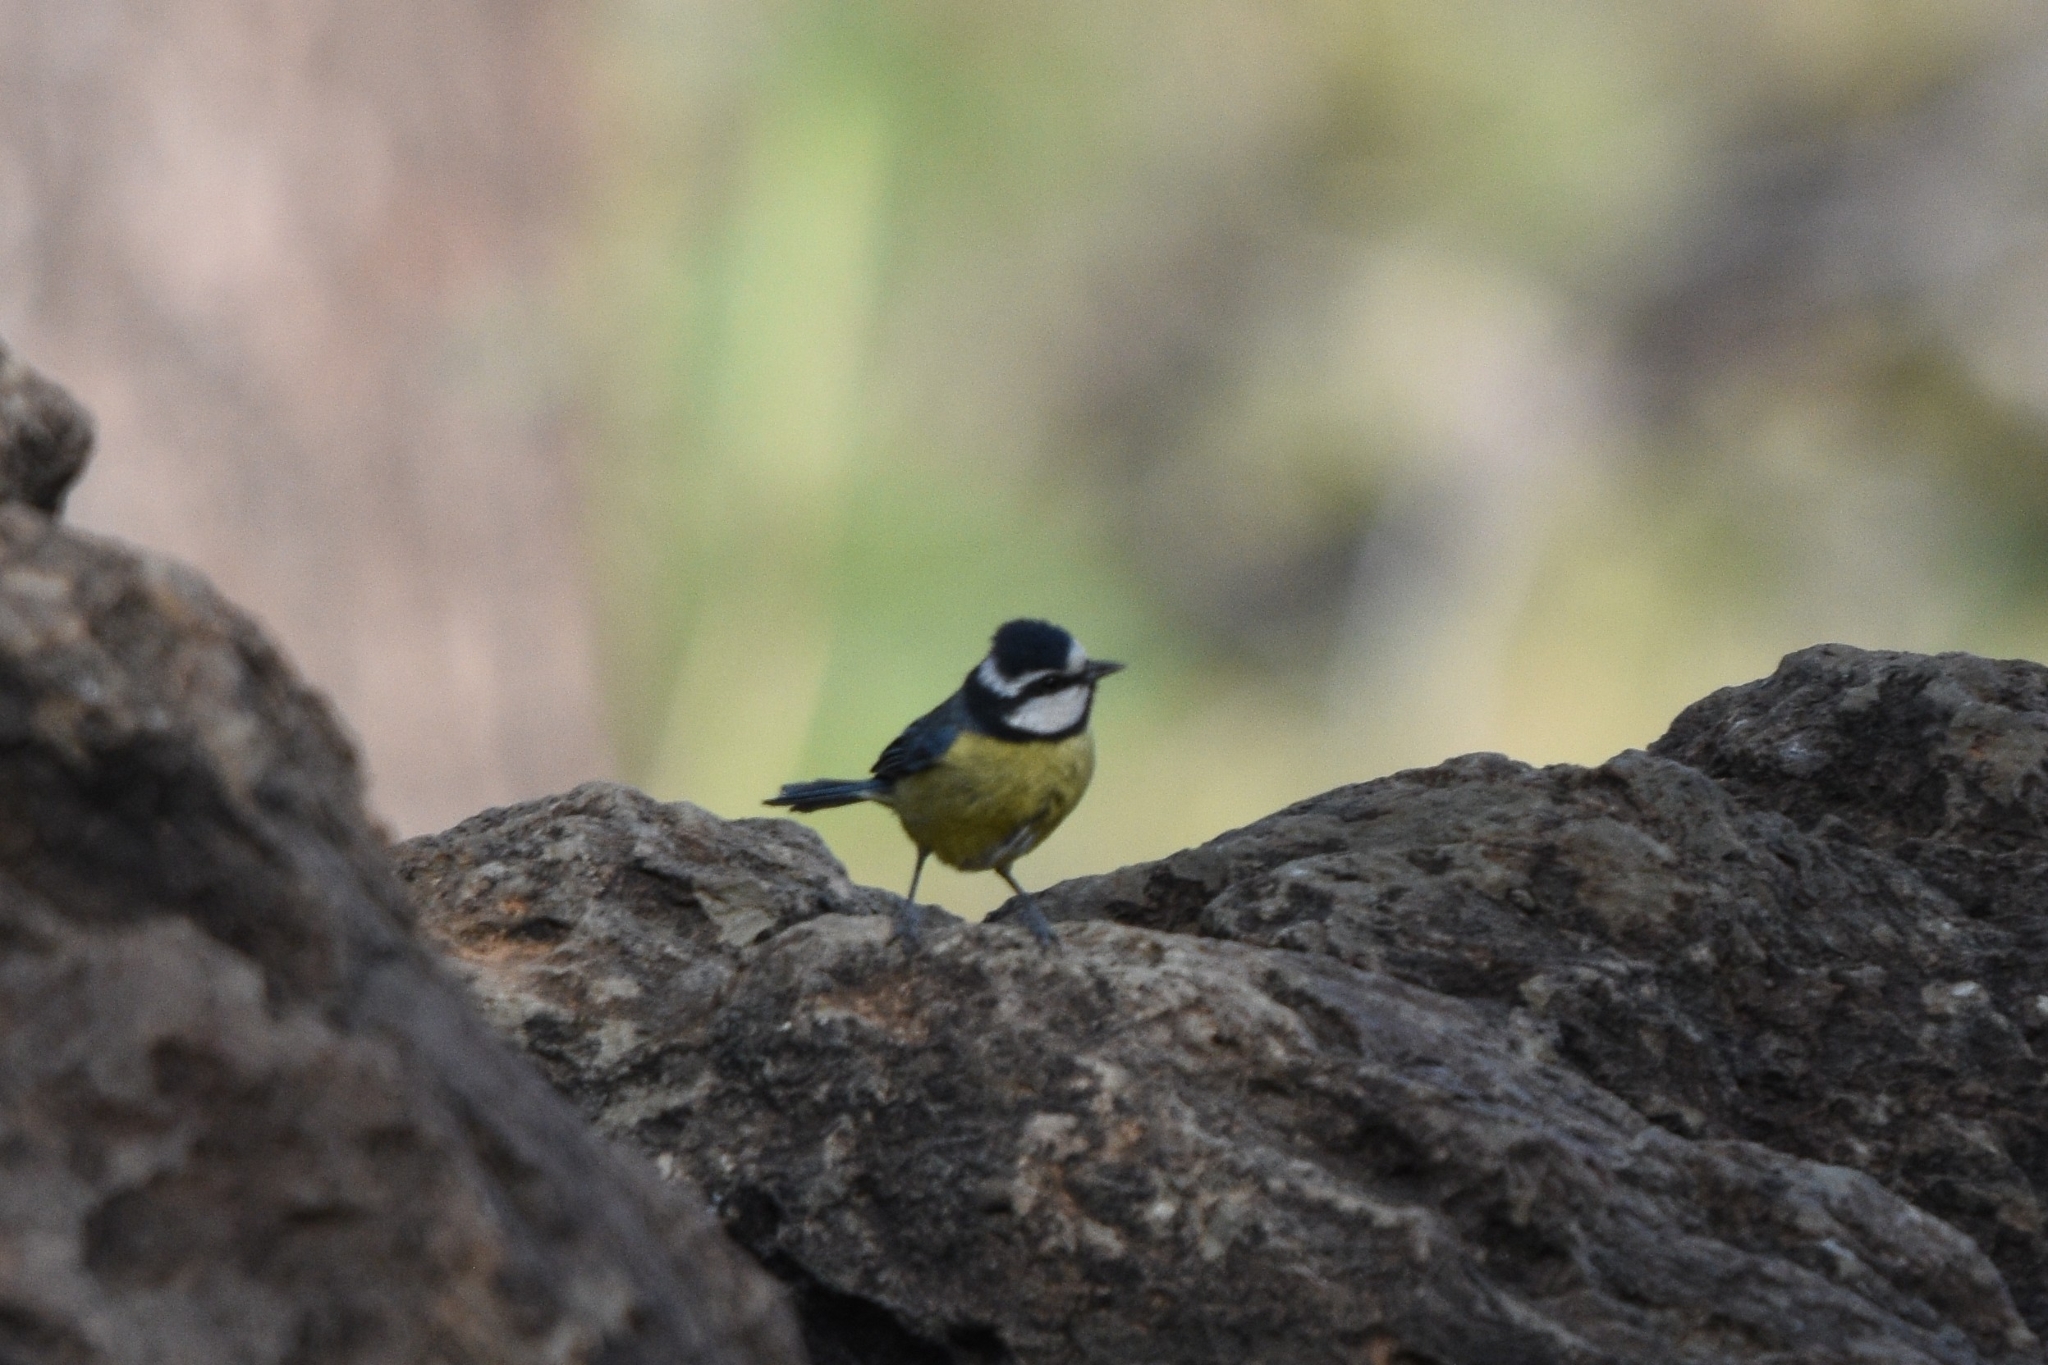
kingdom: Animalia
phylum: Chordata
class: Aves
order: Passeriformes
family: Paridae
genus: Cyanistes
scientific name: Cyanistes teneriffae
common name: African blue tit
